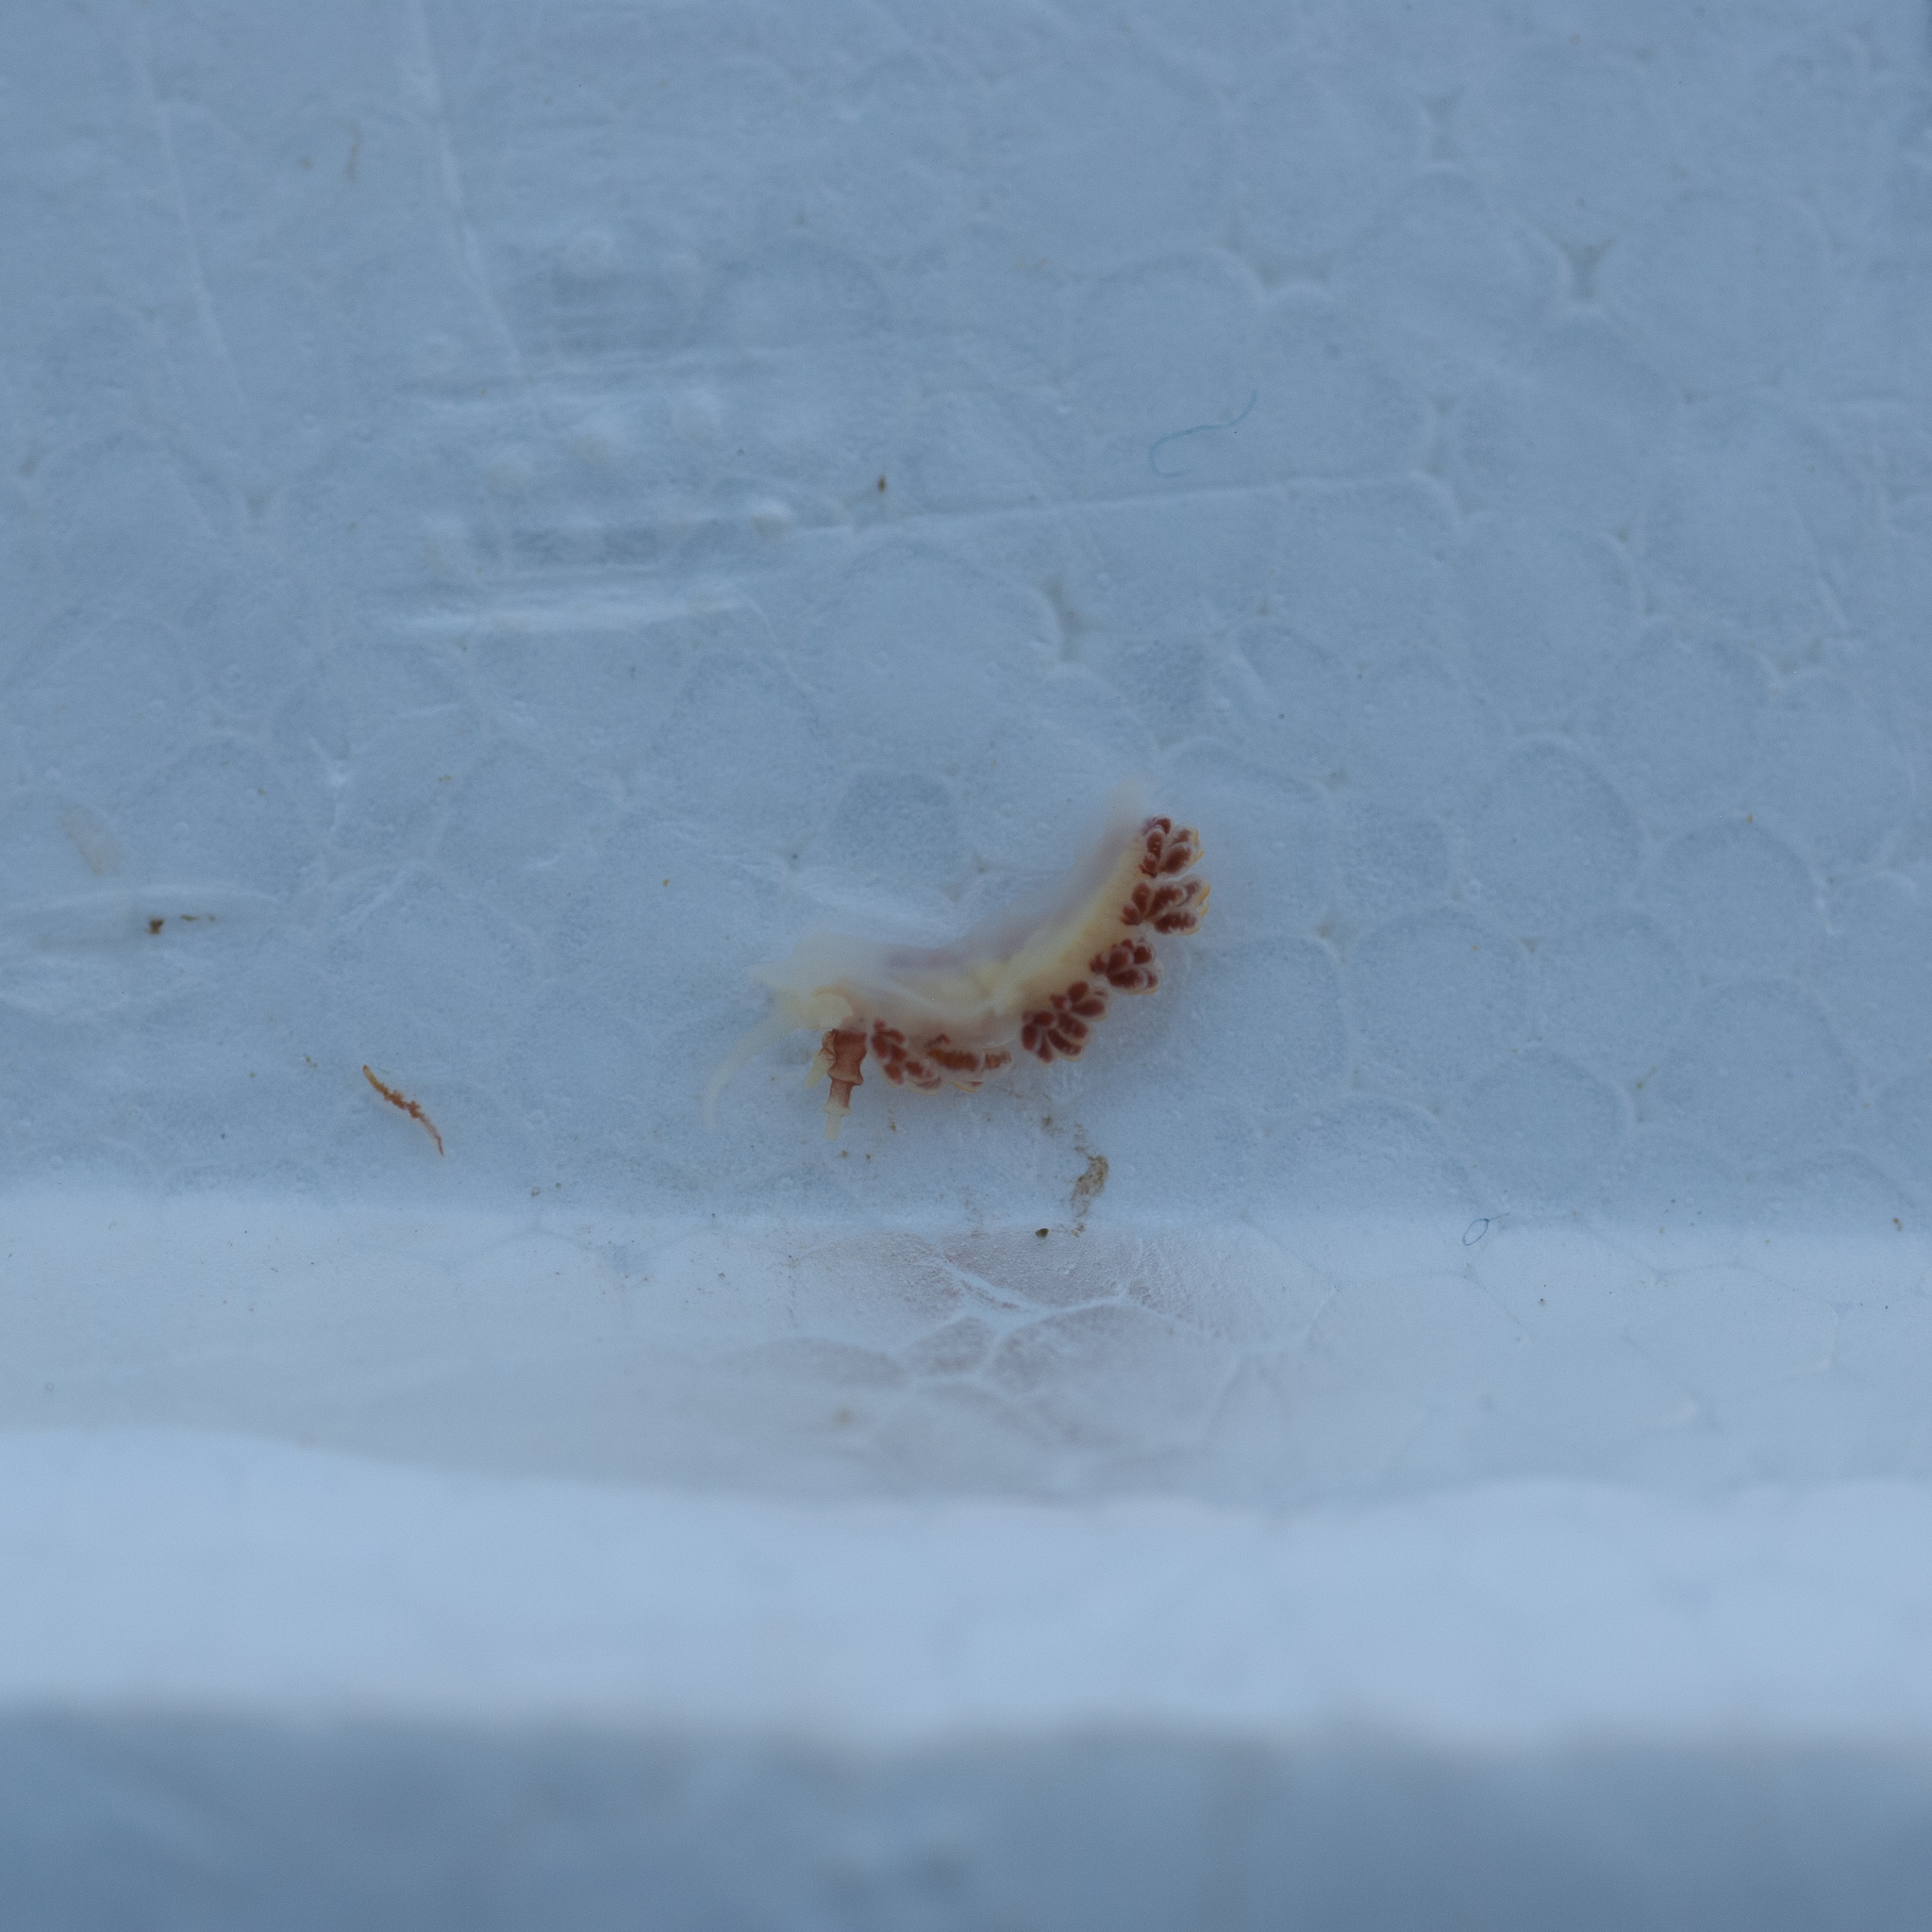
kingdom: Animalia
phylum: Mollusca
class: Gastropoda
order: Nudibranchia
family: Facelinidae
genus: Favorinus
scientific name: Favorinus branchialis
